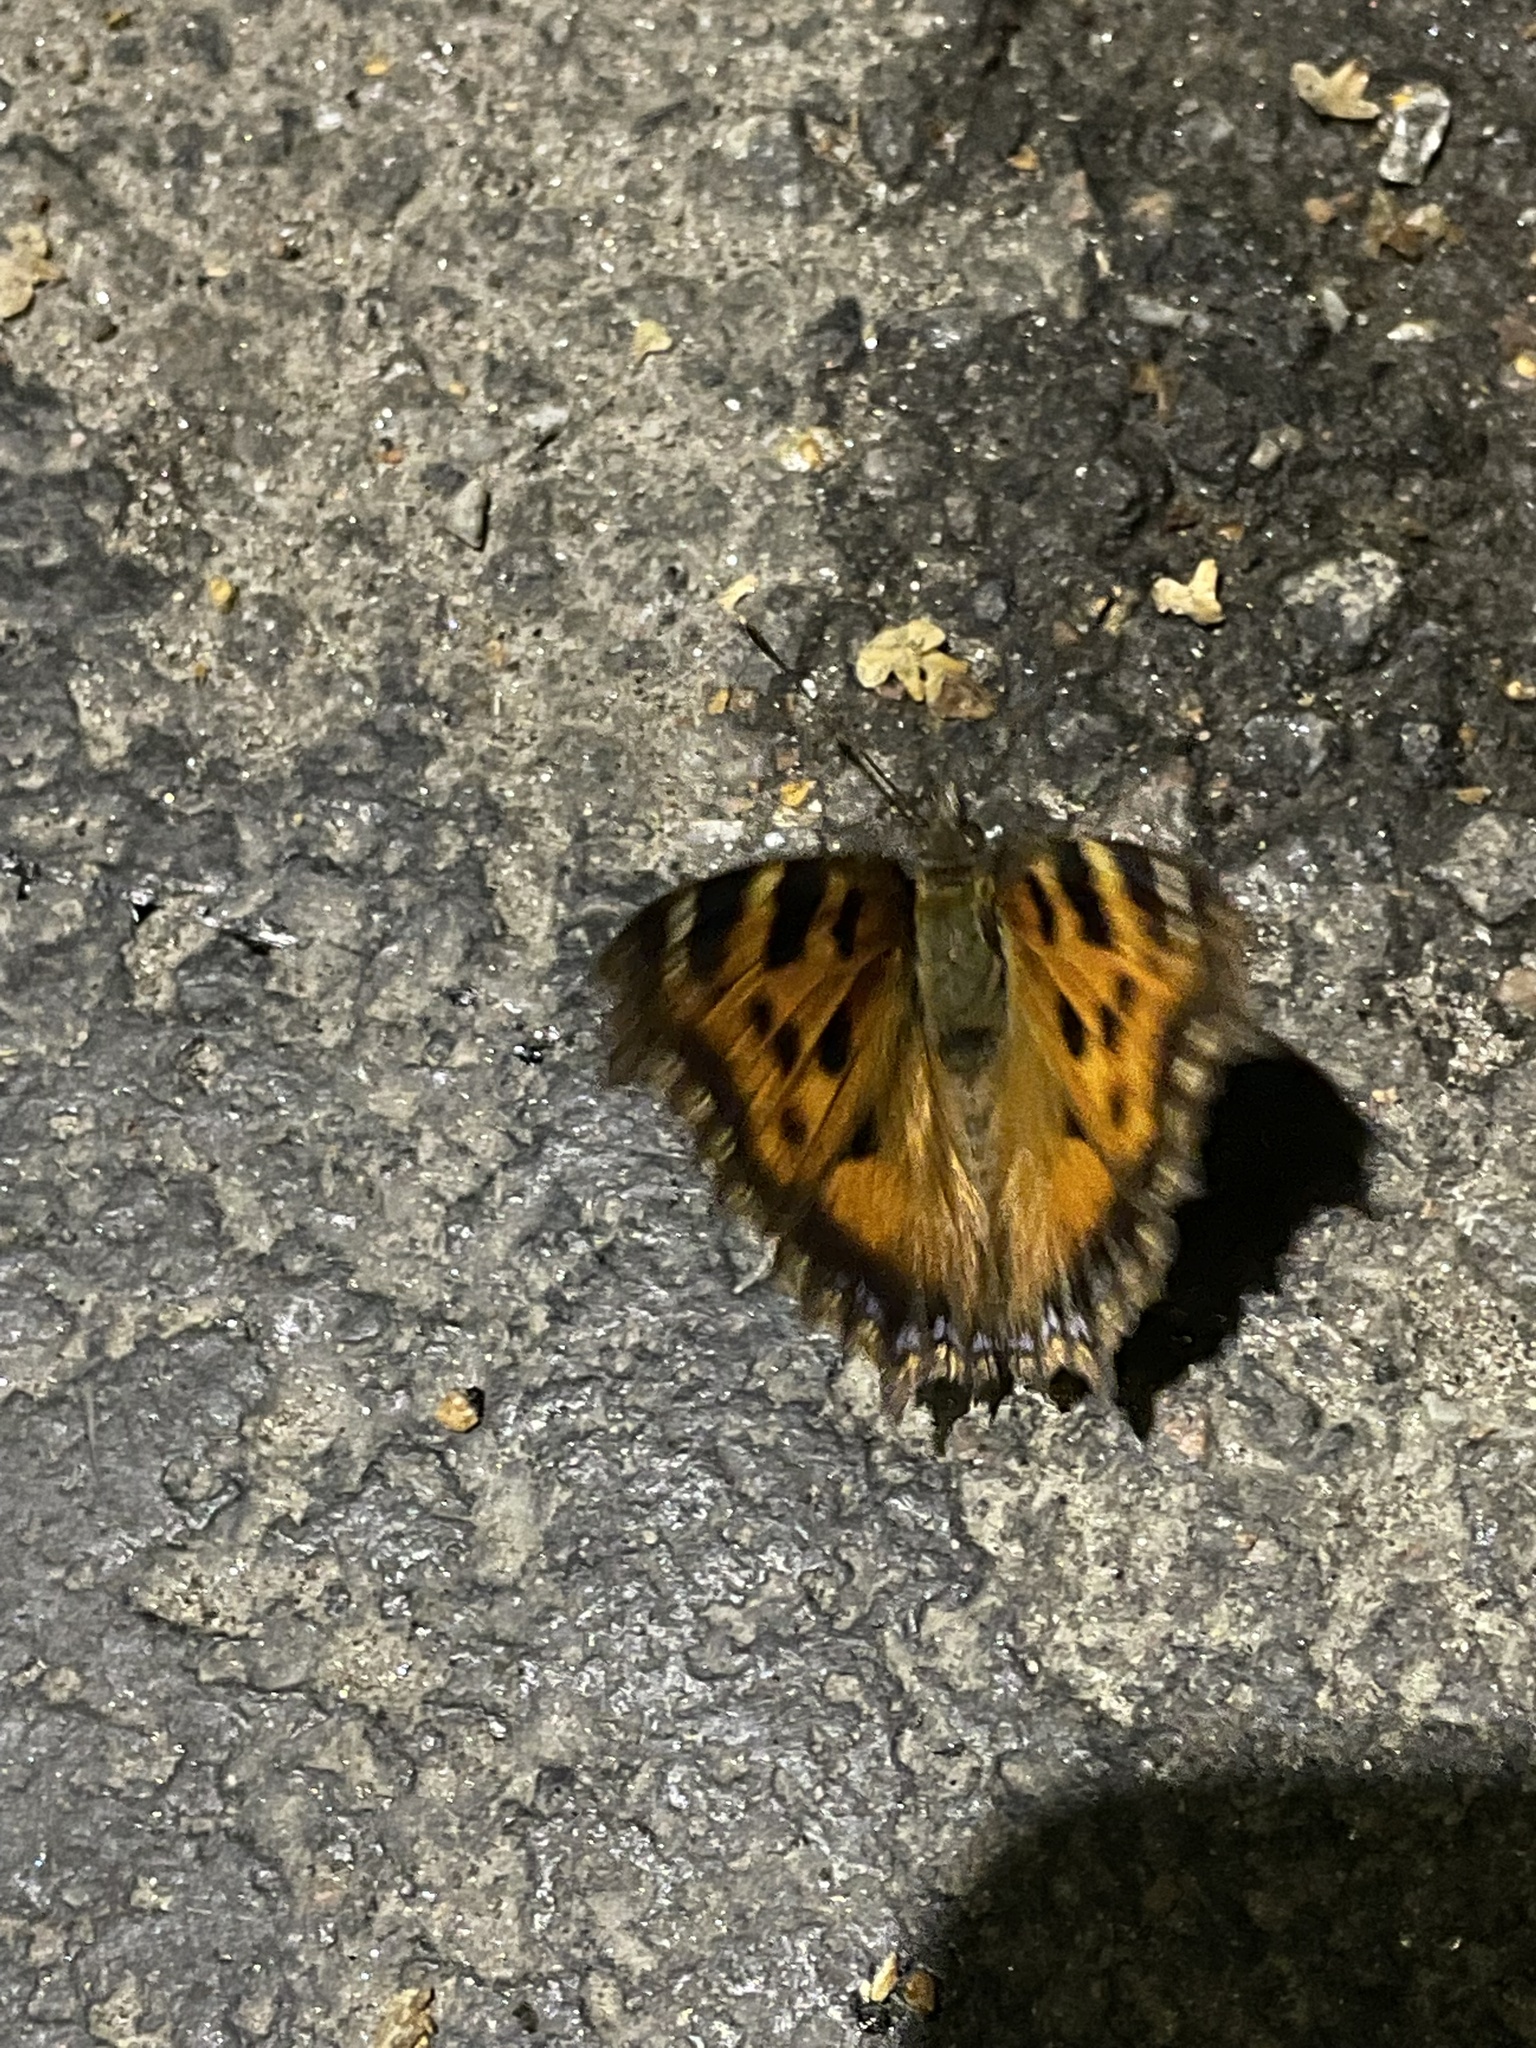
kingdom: Animalia
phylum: Arthropoda
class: Insecta
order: Lepidoptera
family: Nymphalidae
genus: Nymphalis
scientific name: Nymphalis xanthomelas
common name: Scarce tortoiseshell
